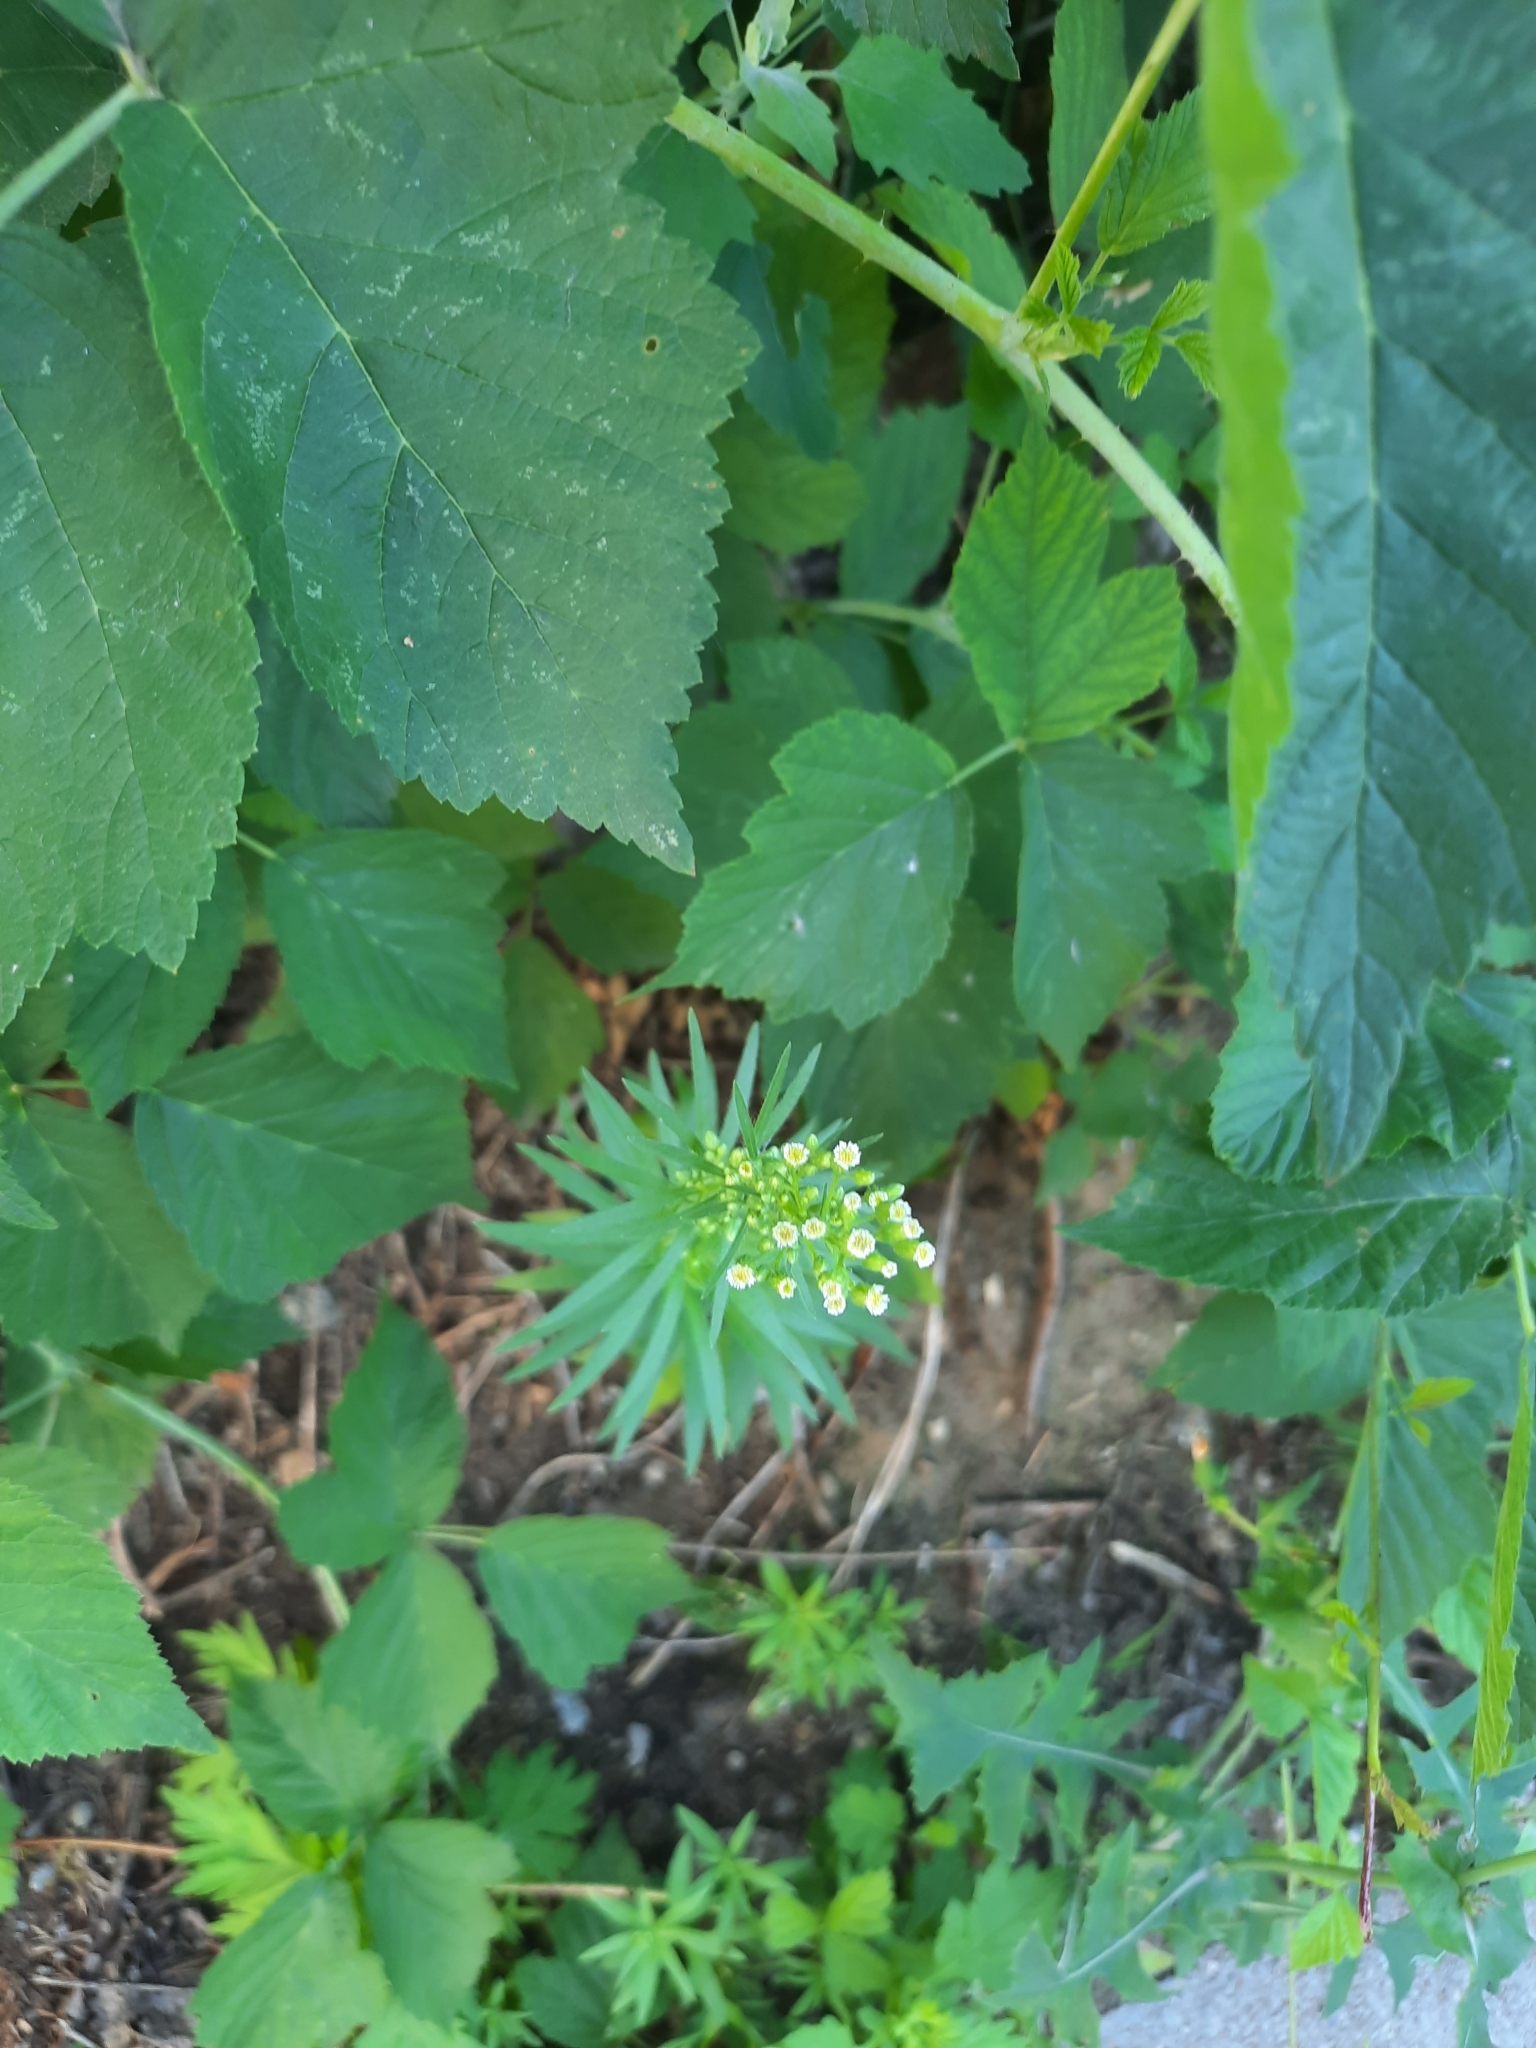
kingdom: Plantae
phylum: Tracheophyta
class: Magnoliopsida
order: Asterales
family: Asteraceae
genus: Erigeron
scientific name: Erigeron canadensis
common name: Canadian fleabane
